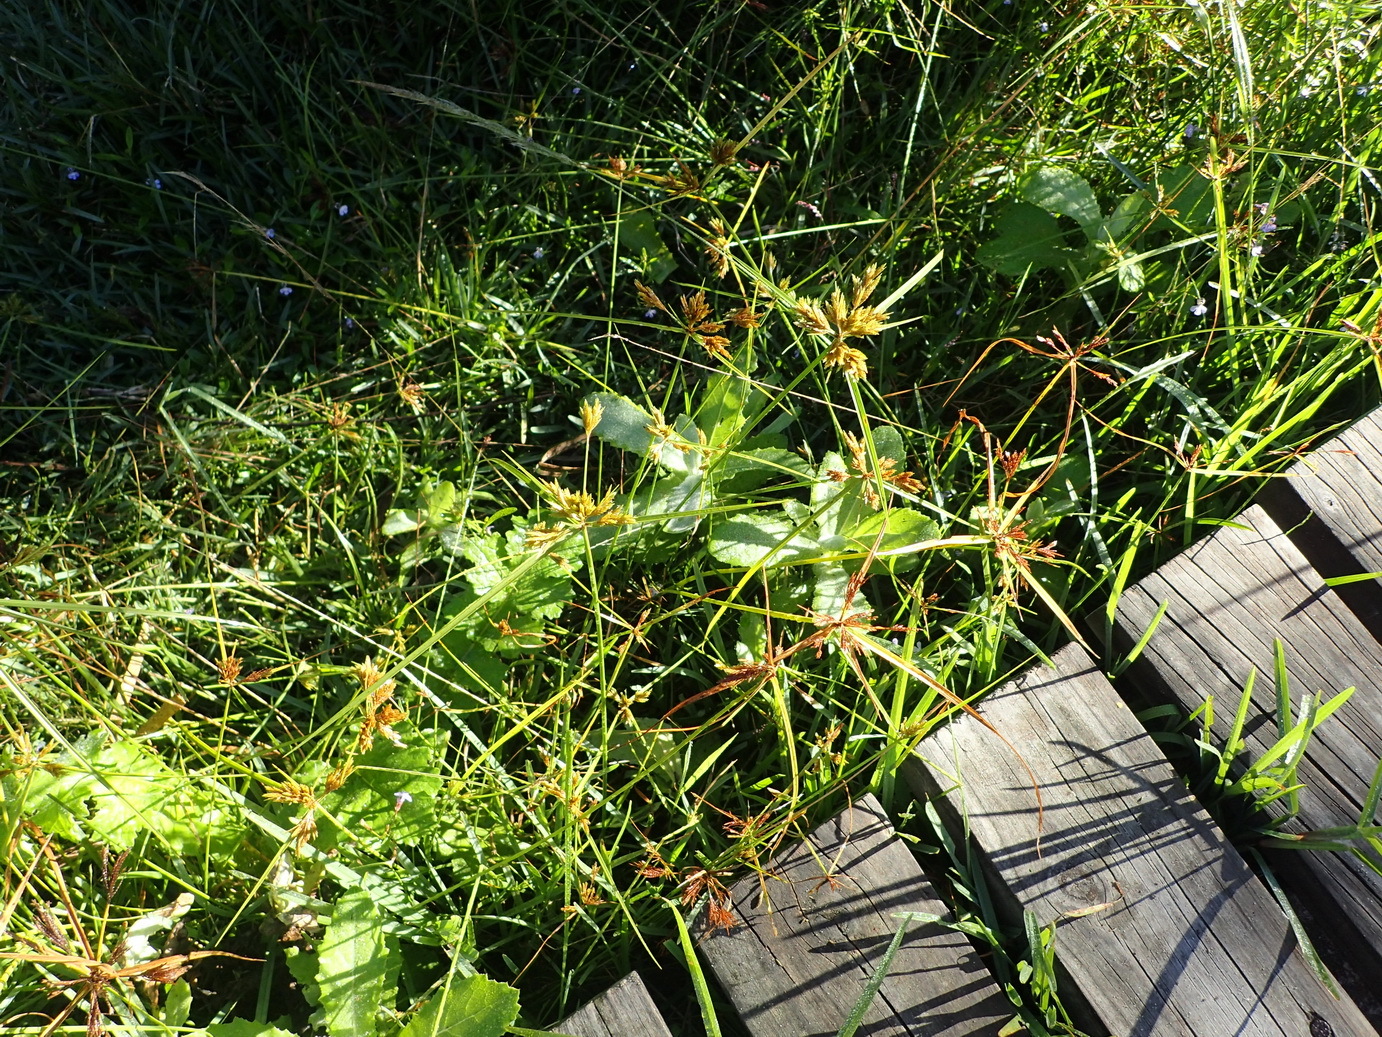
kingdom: Plantae
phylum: Tracheophyta
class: Liliopsida
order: Poales
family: Cyperaceae
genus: Cyperus
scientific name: Cyperus polystachyos
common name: Bunchy flat sedge
